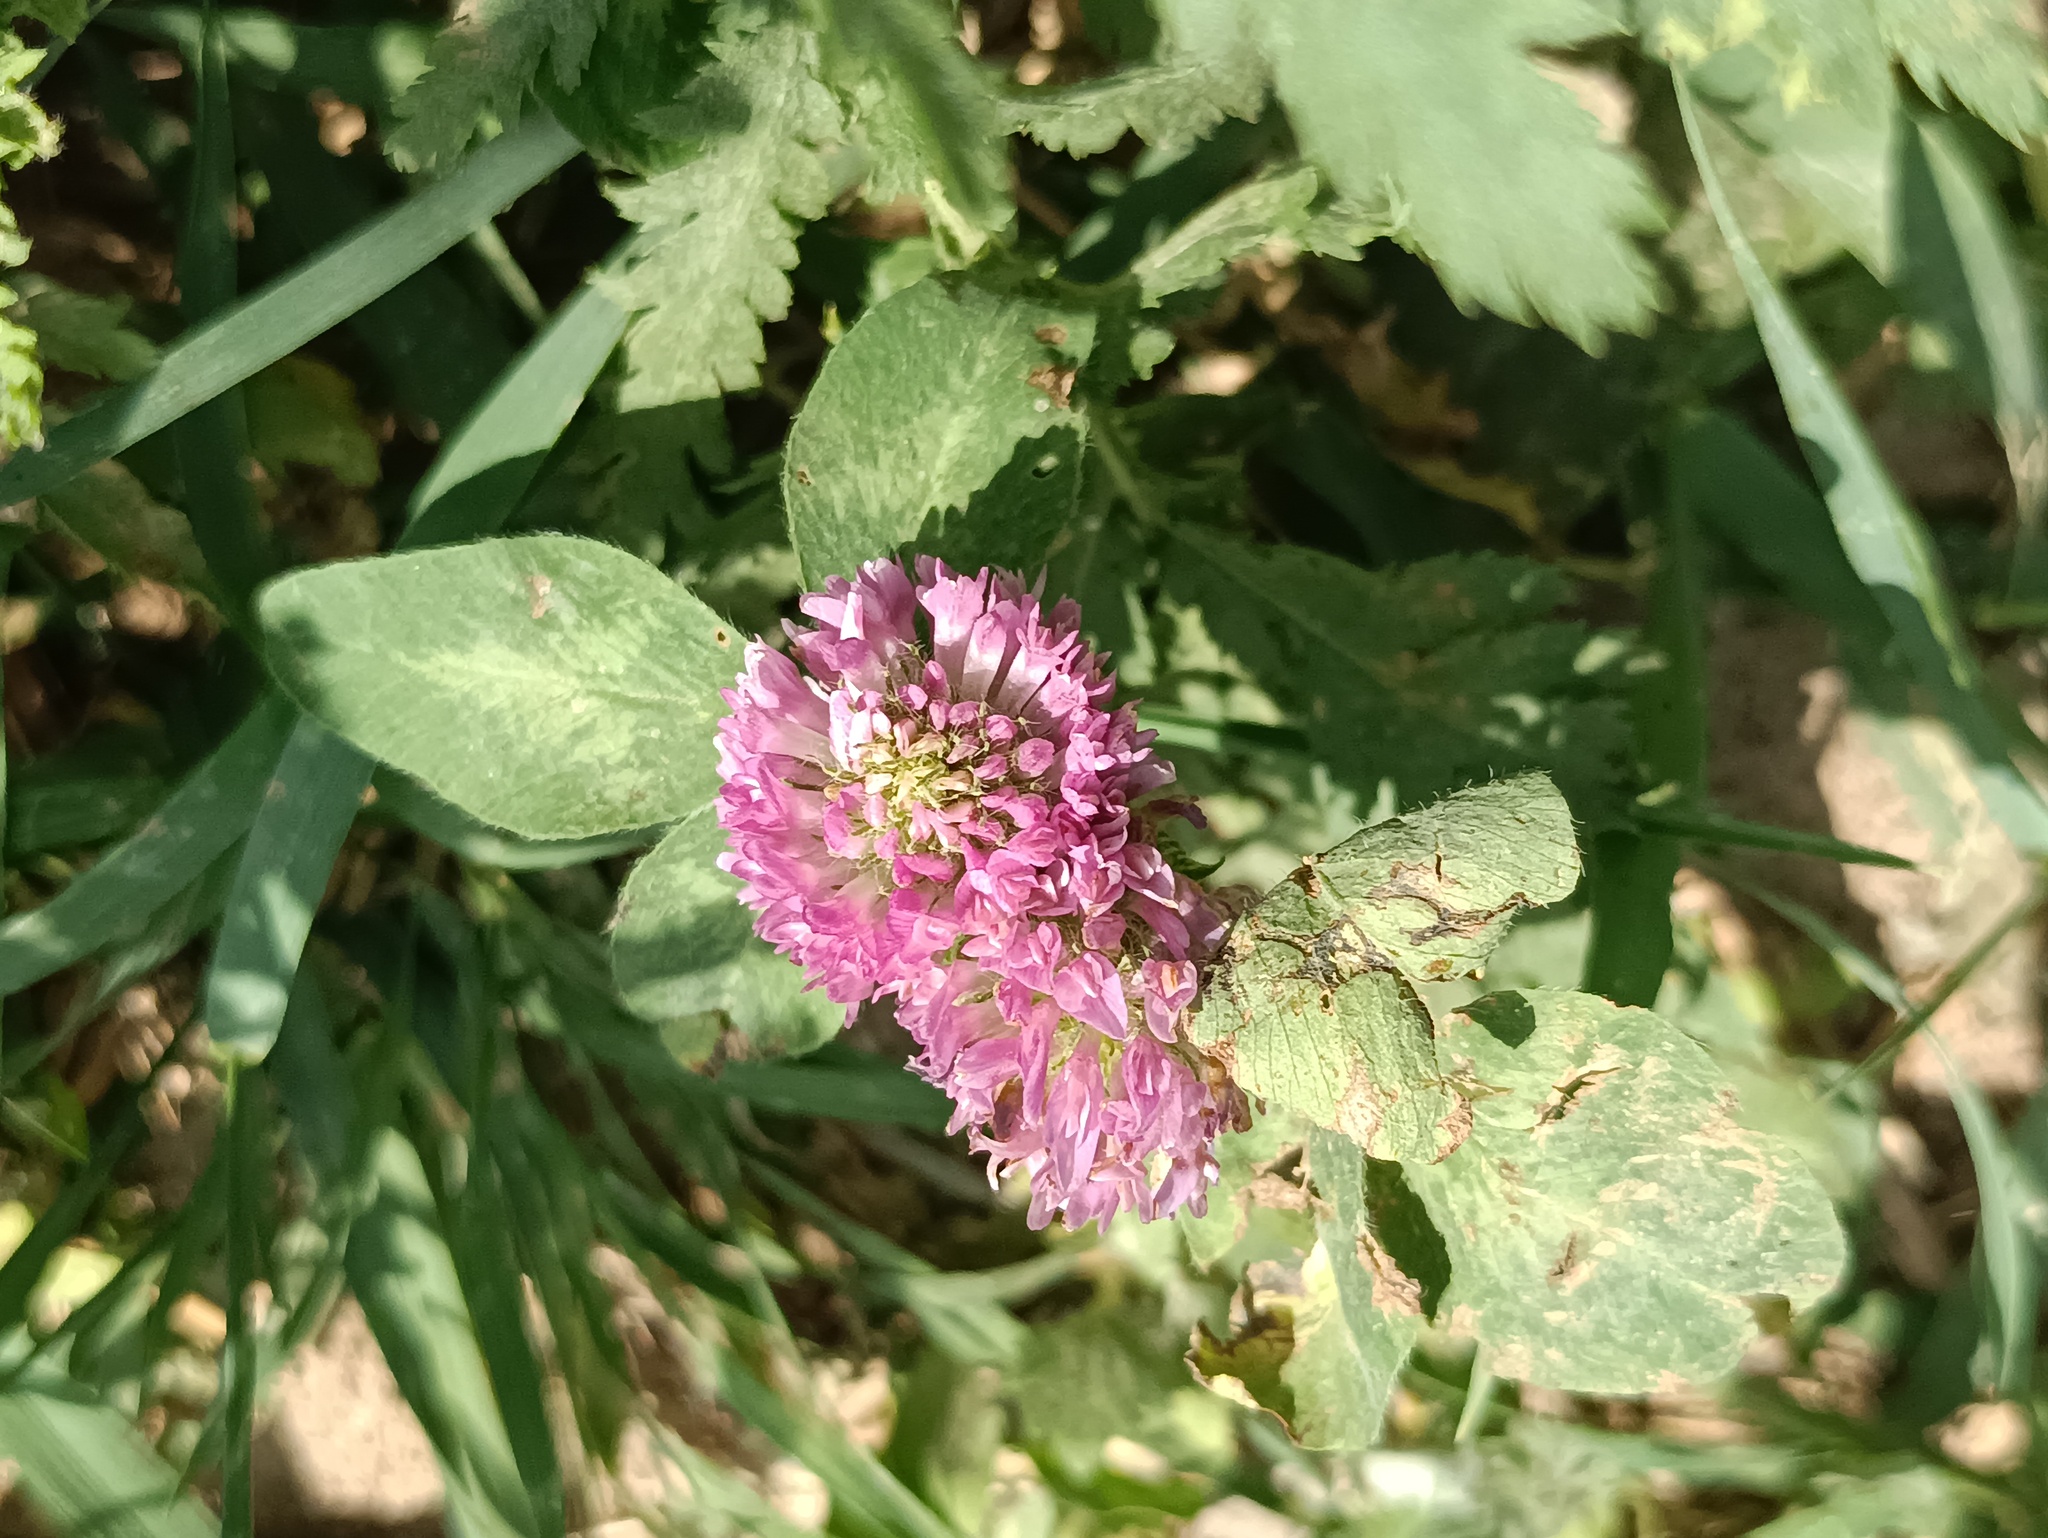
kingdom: Plantae
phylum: Tracheophyta
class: Magnoliopsida
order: Fabales
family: Fabaceae
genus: Trifolium
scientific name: Trifolium pratense
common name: Red clover
